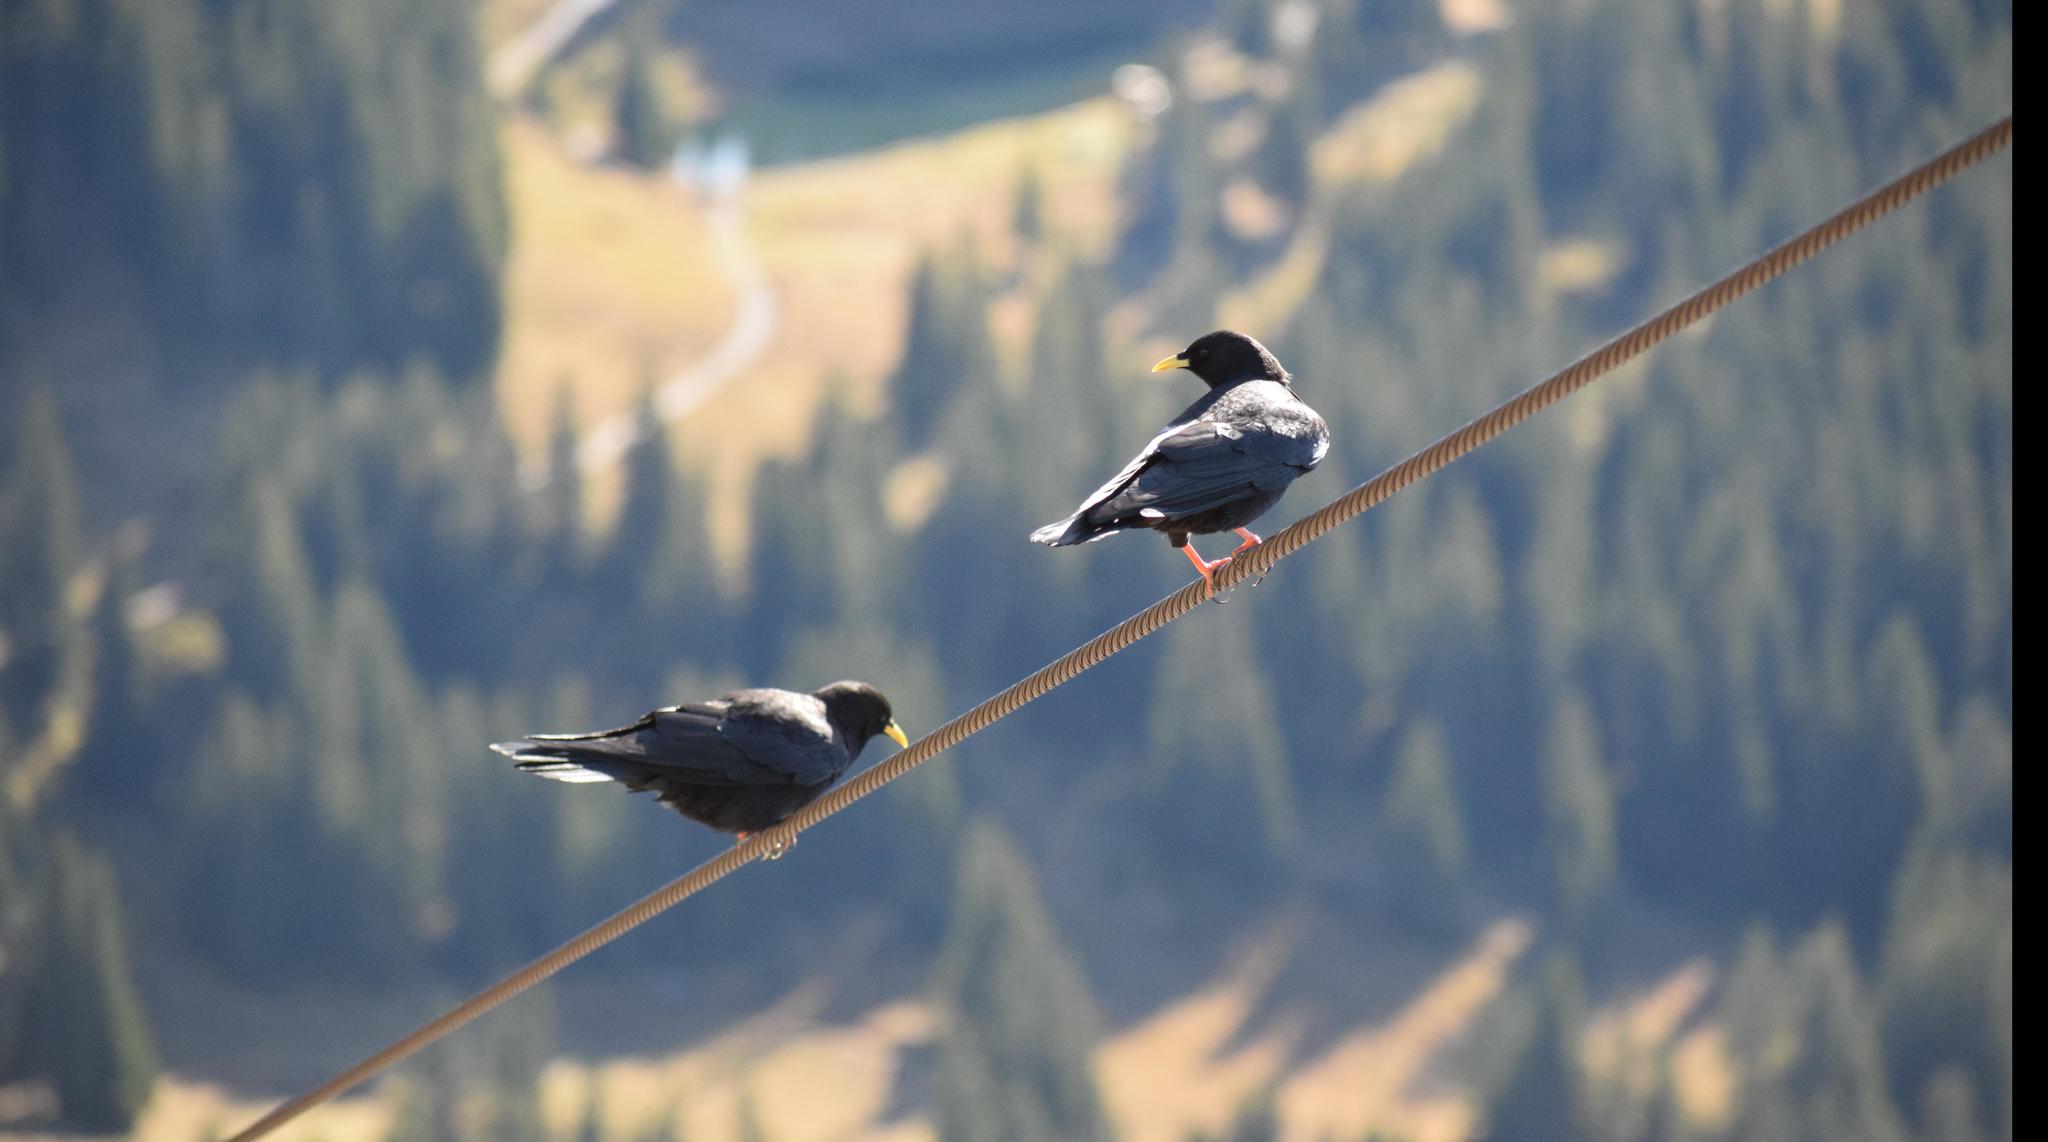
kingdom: Animalia
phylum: Chordata
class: Aves
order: Passeriformes
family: Corvidae
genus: Pyrrhocorax
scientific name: Pyrrhocorax graculus
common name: Alpine chough
